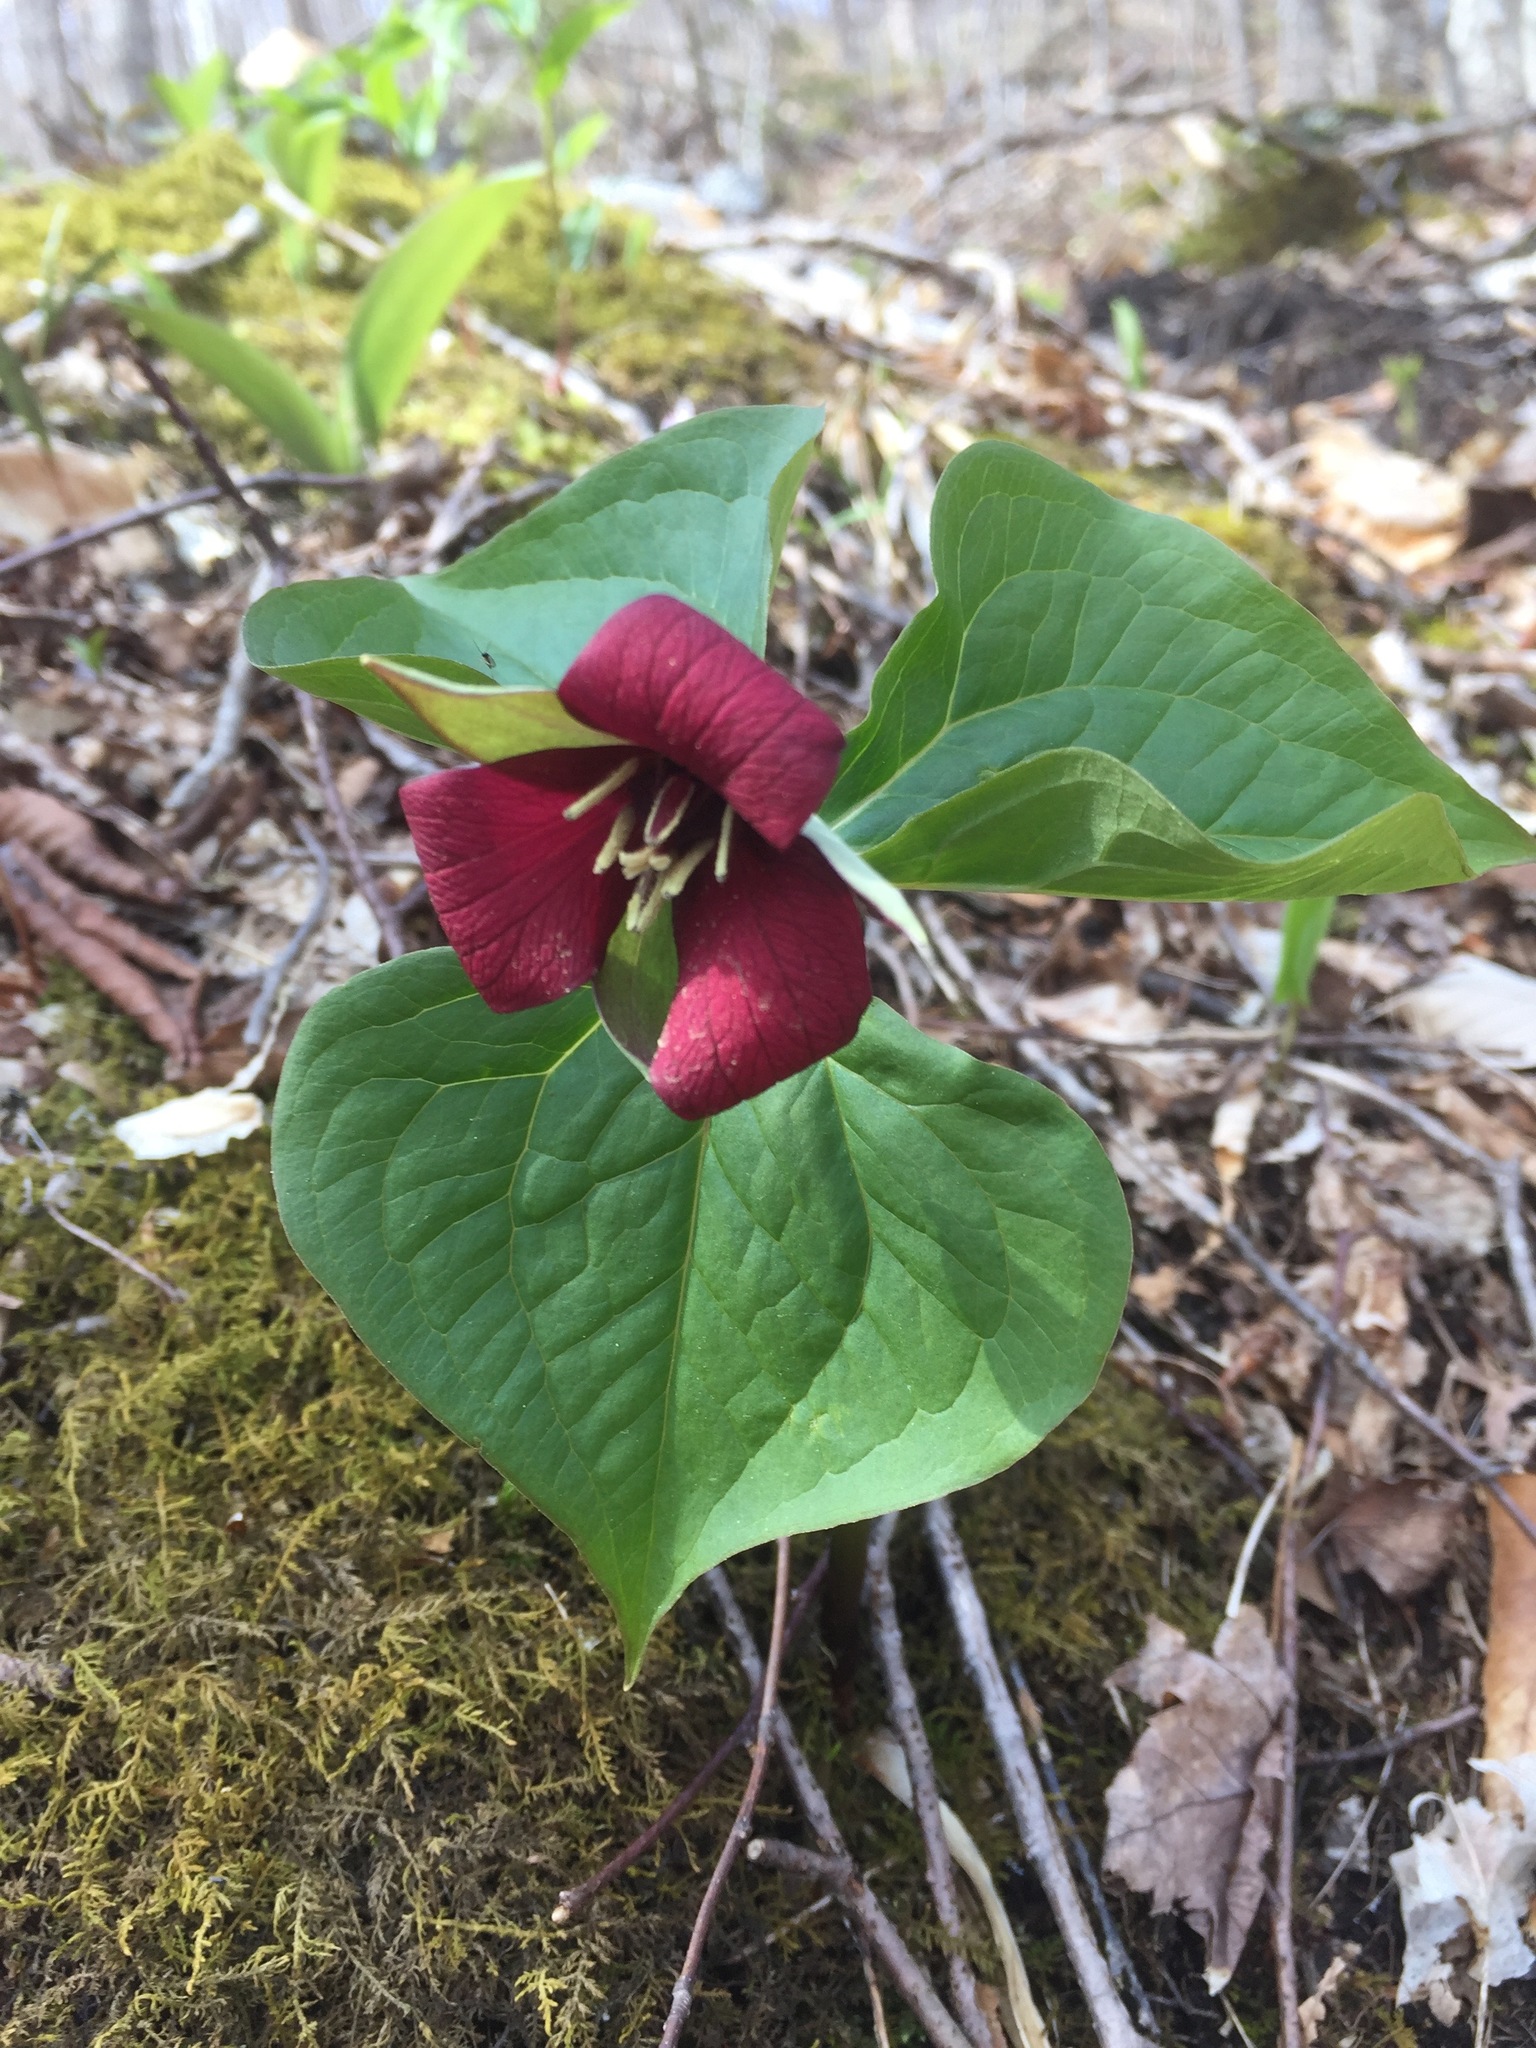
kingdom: Plantae
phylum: Tracheophyta
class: Liliopsida
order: Liliales
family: Melanthiaceae
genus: Trillium
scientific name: Trillium erectum
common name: Purple trillium
